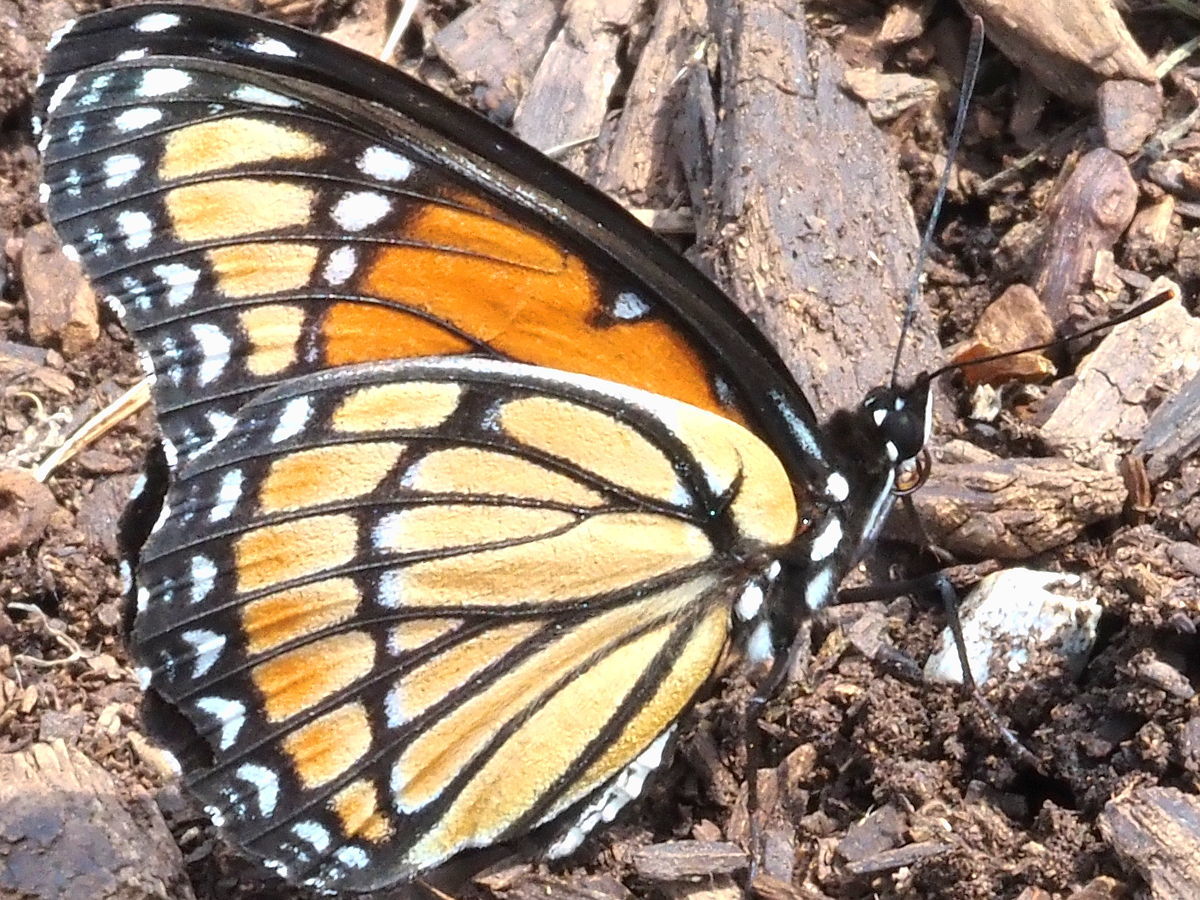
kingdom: Animalia
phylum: Arthropoda
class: Insecta
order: Lepidoptera
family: Nymphalidae
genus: Limenitis
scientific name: Limenitis archippus
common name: Viceroy
